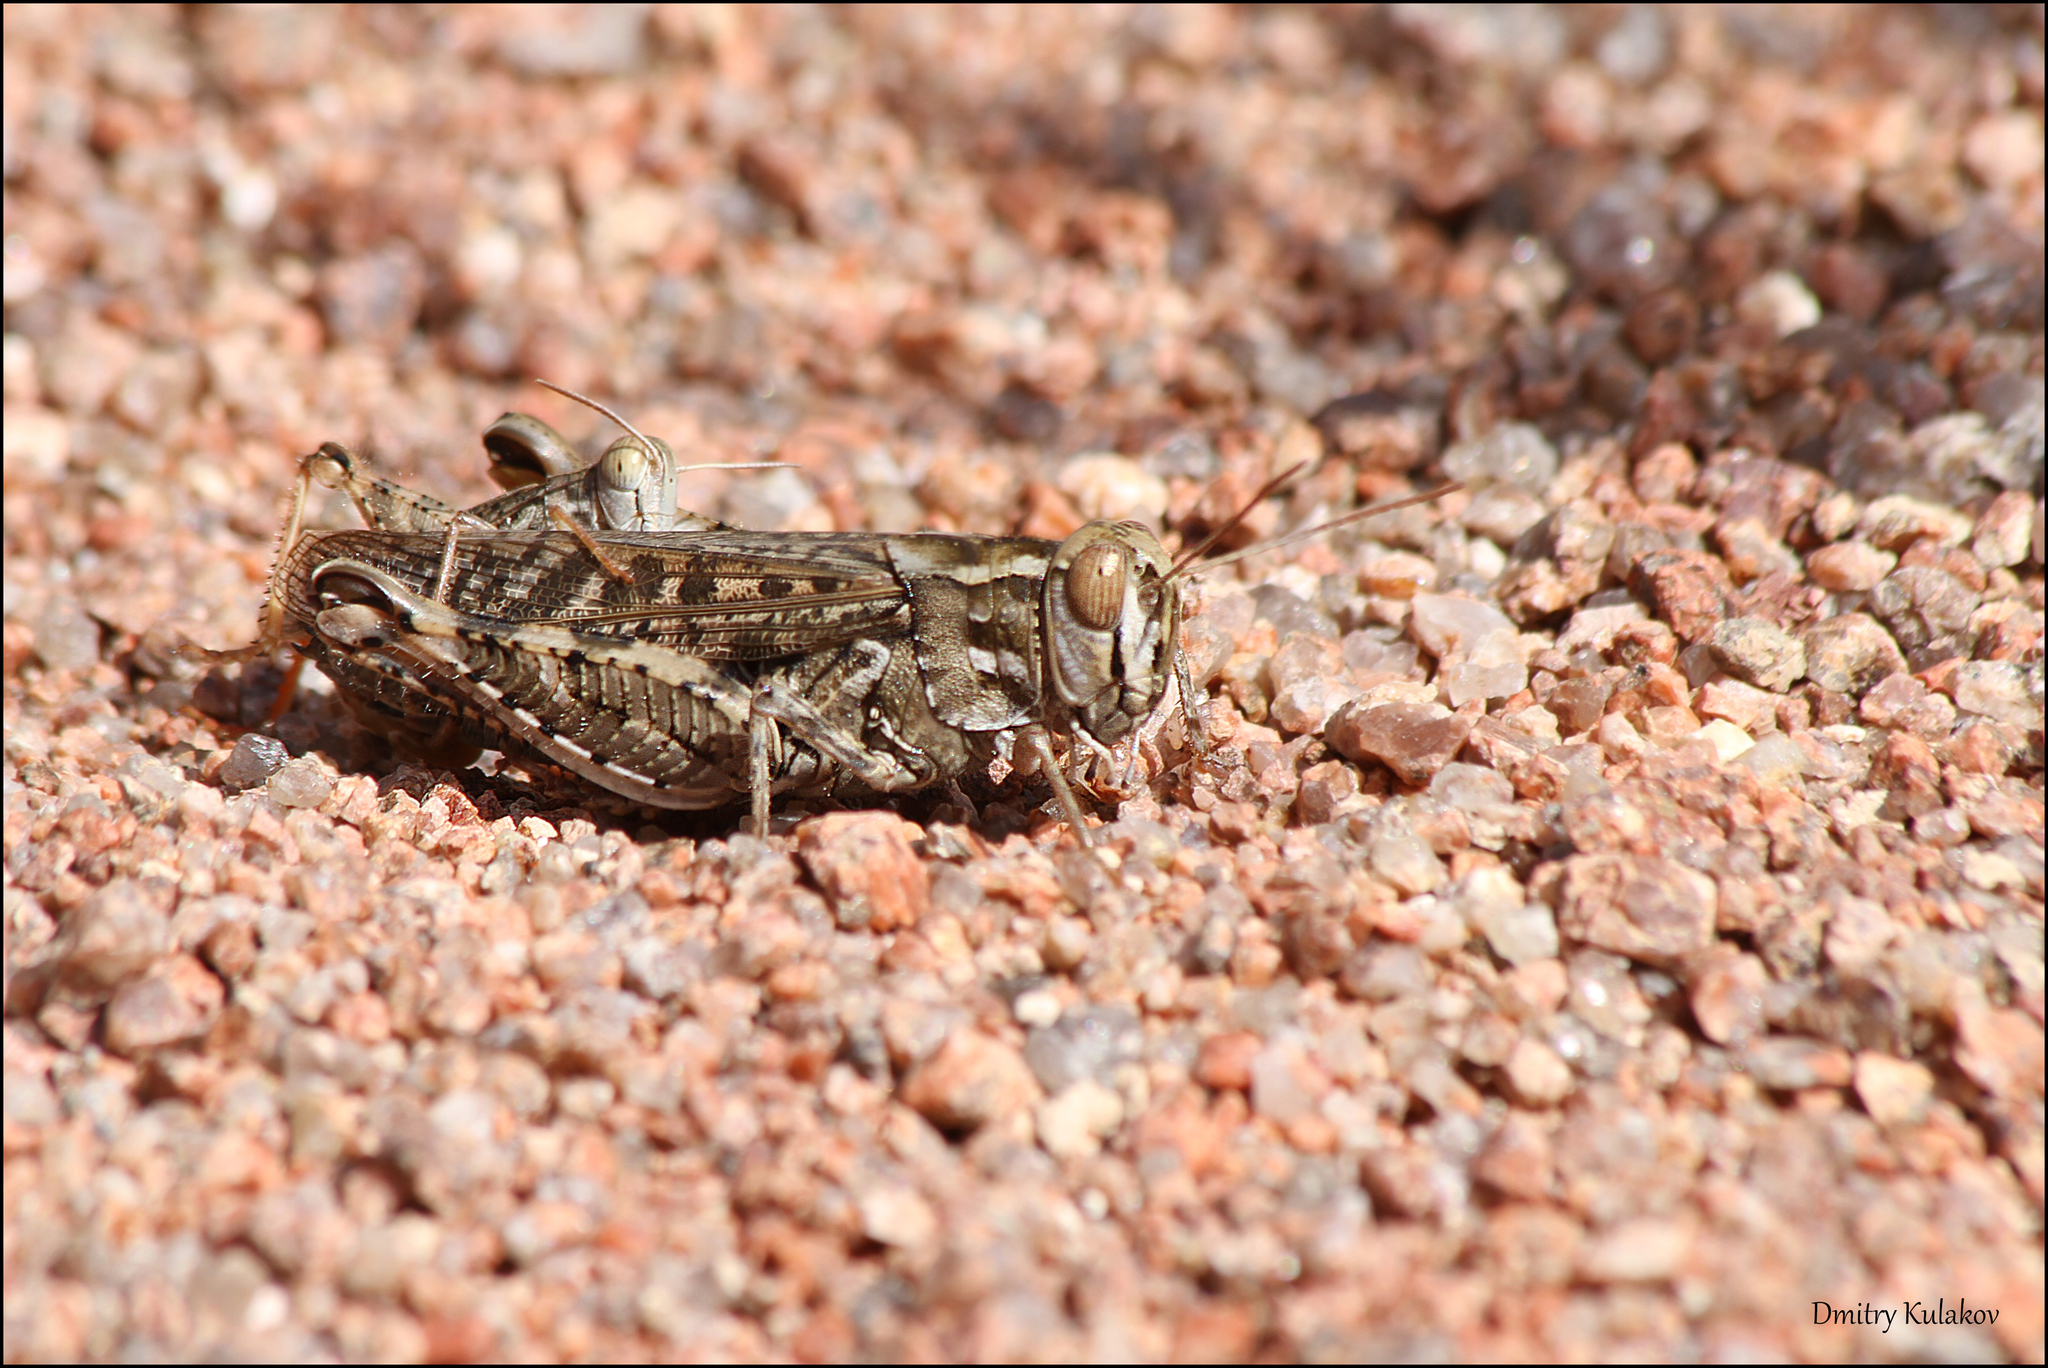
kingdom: Animalia
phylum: Arthropoda
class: Insecta
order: Orthoptera
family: Acrididae
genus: Calliptamus
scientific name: Calliptamus barbarus
